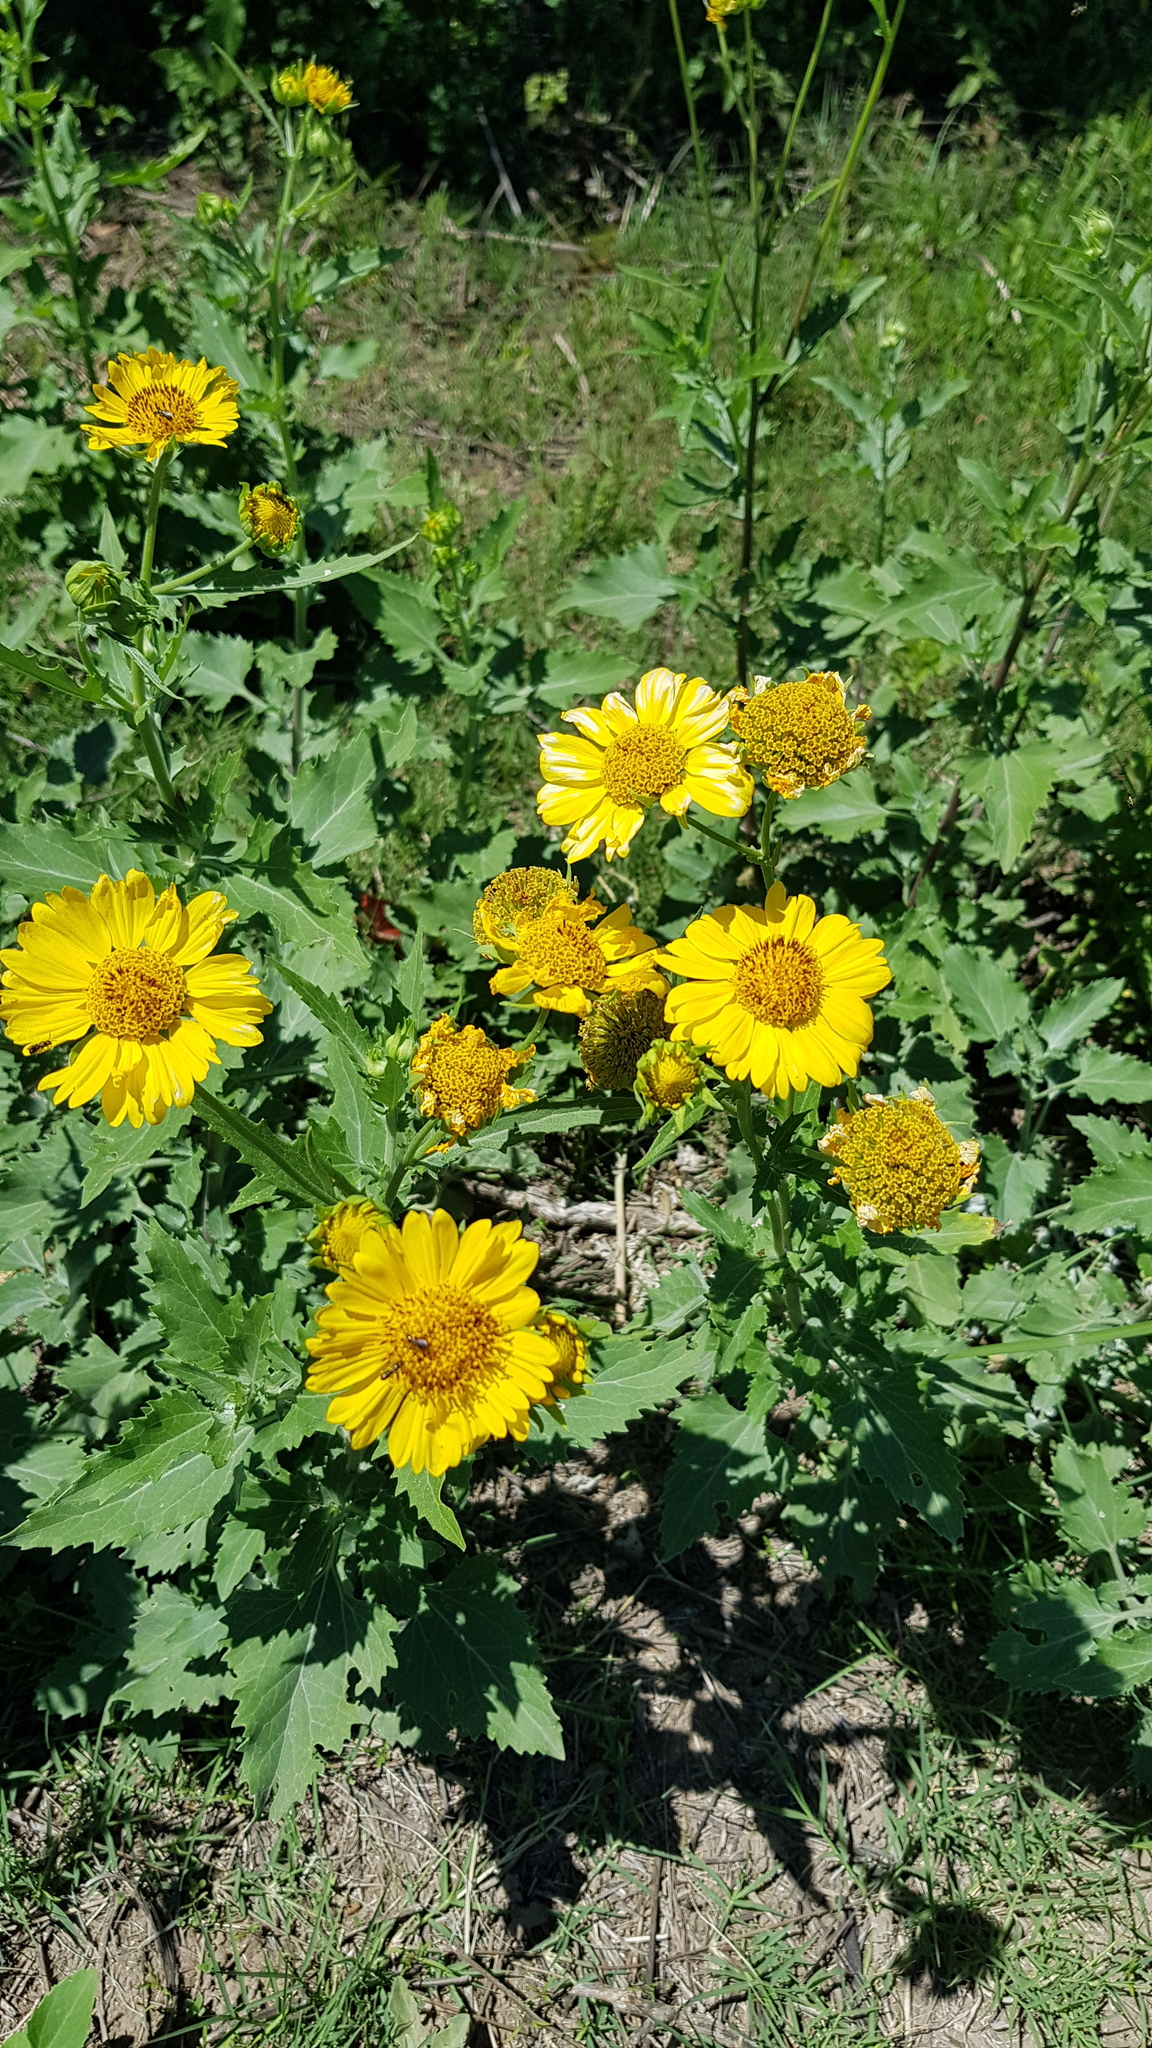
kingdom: Plantae
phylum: Tracheophyta
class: Magnoliopsida
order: Asterales
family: Asteraceae
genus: Verbesina
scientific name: Verbesina encelioides
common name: Golden crownbeard
